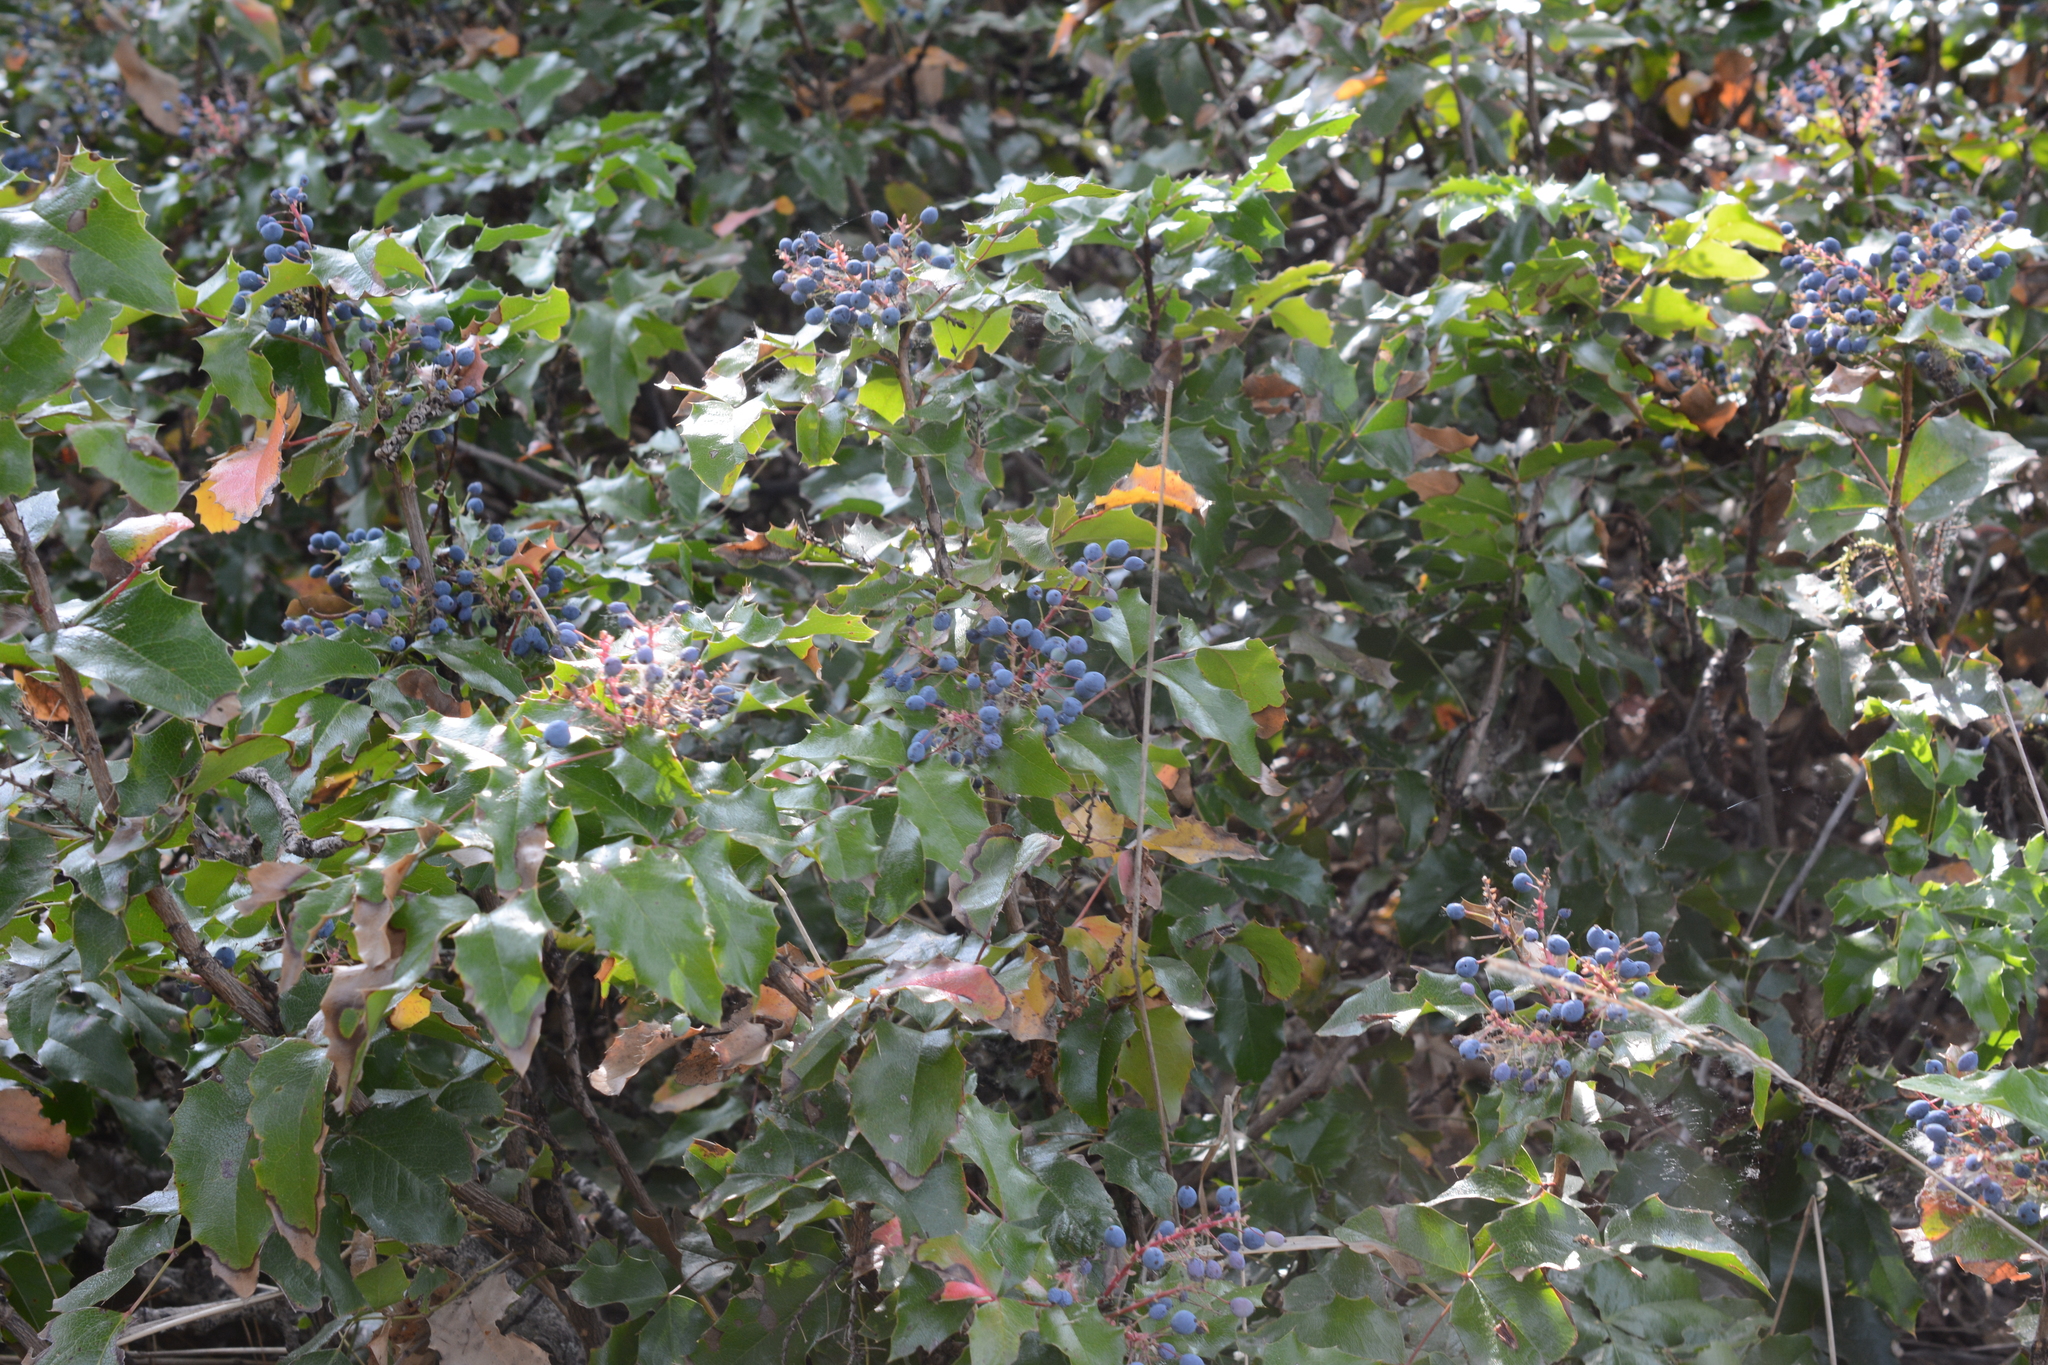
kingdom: Plantae
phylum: Tracheophyta
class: Magnoliopsida
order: Ranunculales
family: Berberidaceae
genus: Mahonia
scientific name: Mahonia aquifolium
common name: Oregon-grape
